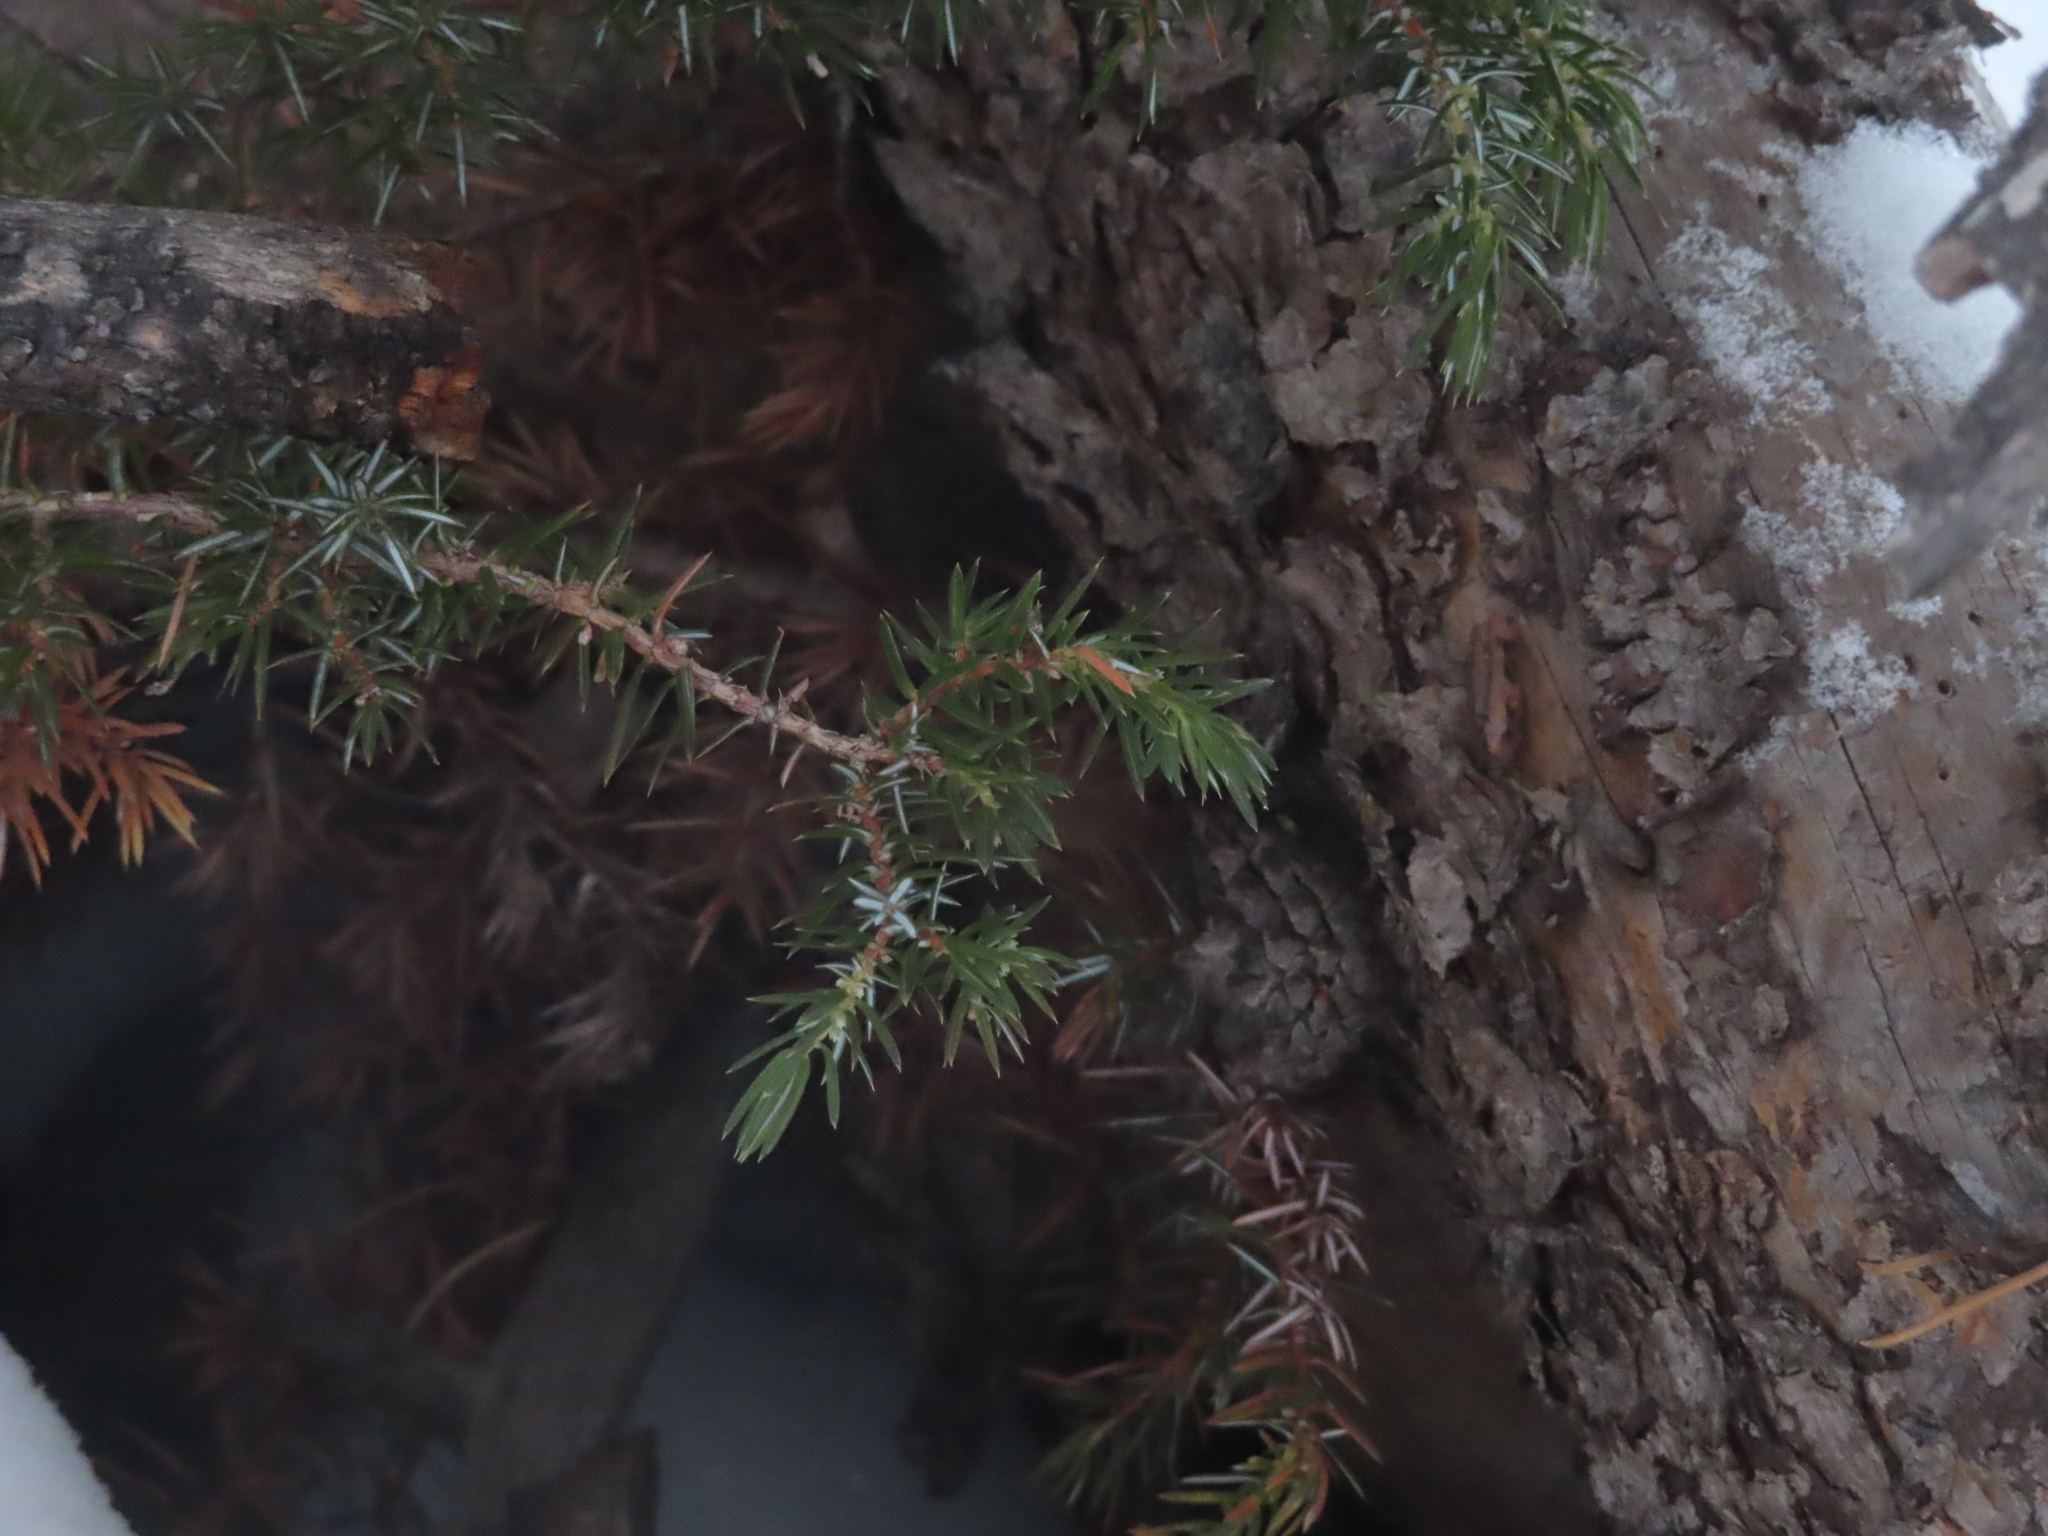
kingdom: Plantae
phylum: Tracheophyta
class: Pinopsida
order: Pinales
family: Cupressaceae
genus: Juniperus
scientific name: Juniperus communis
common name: Common juniper
